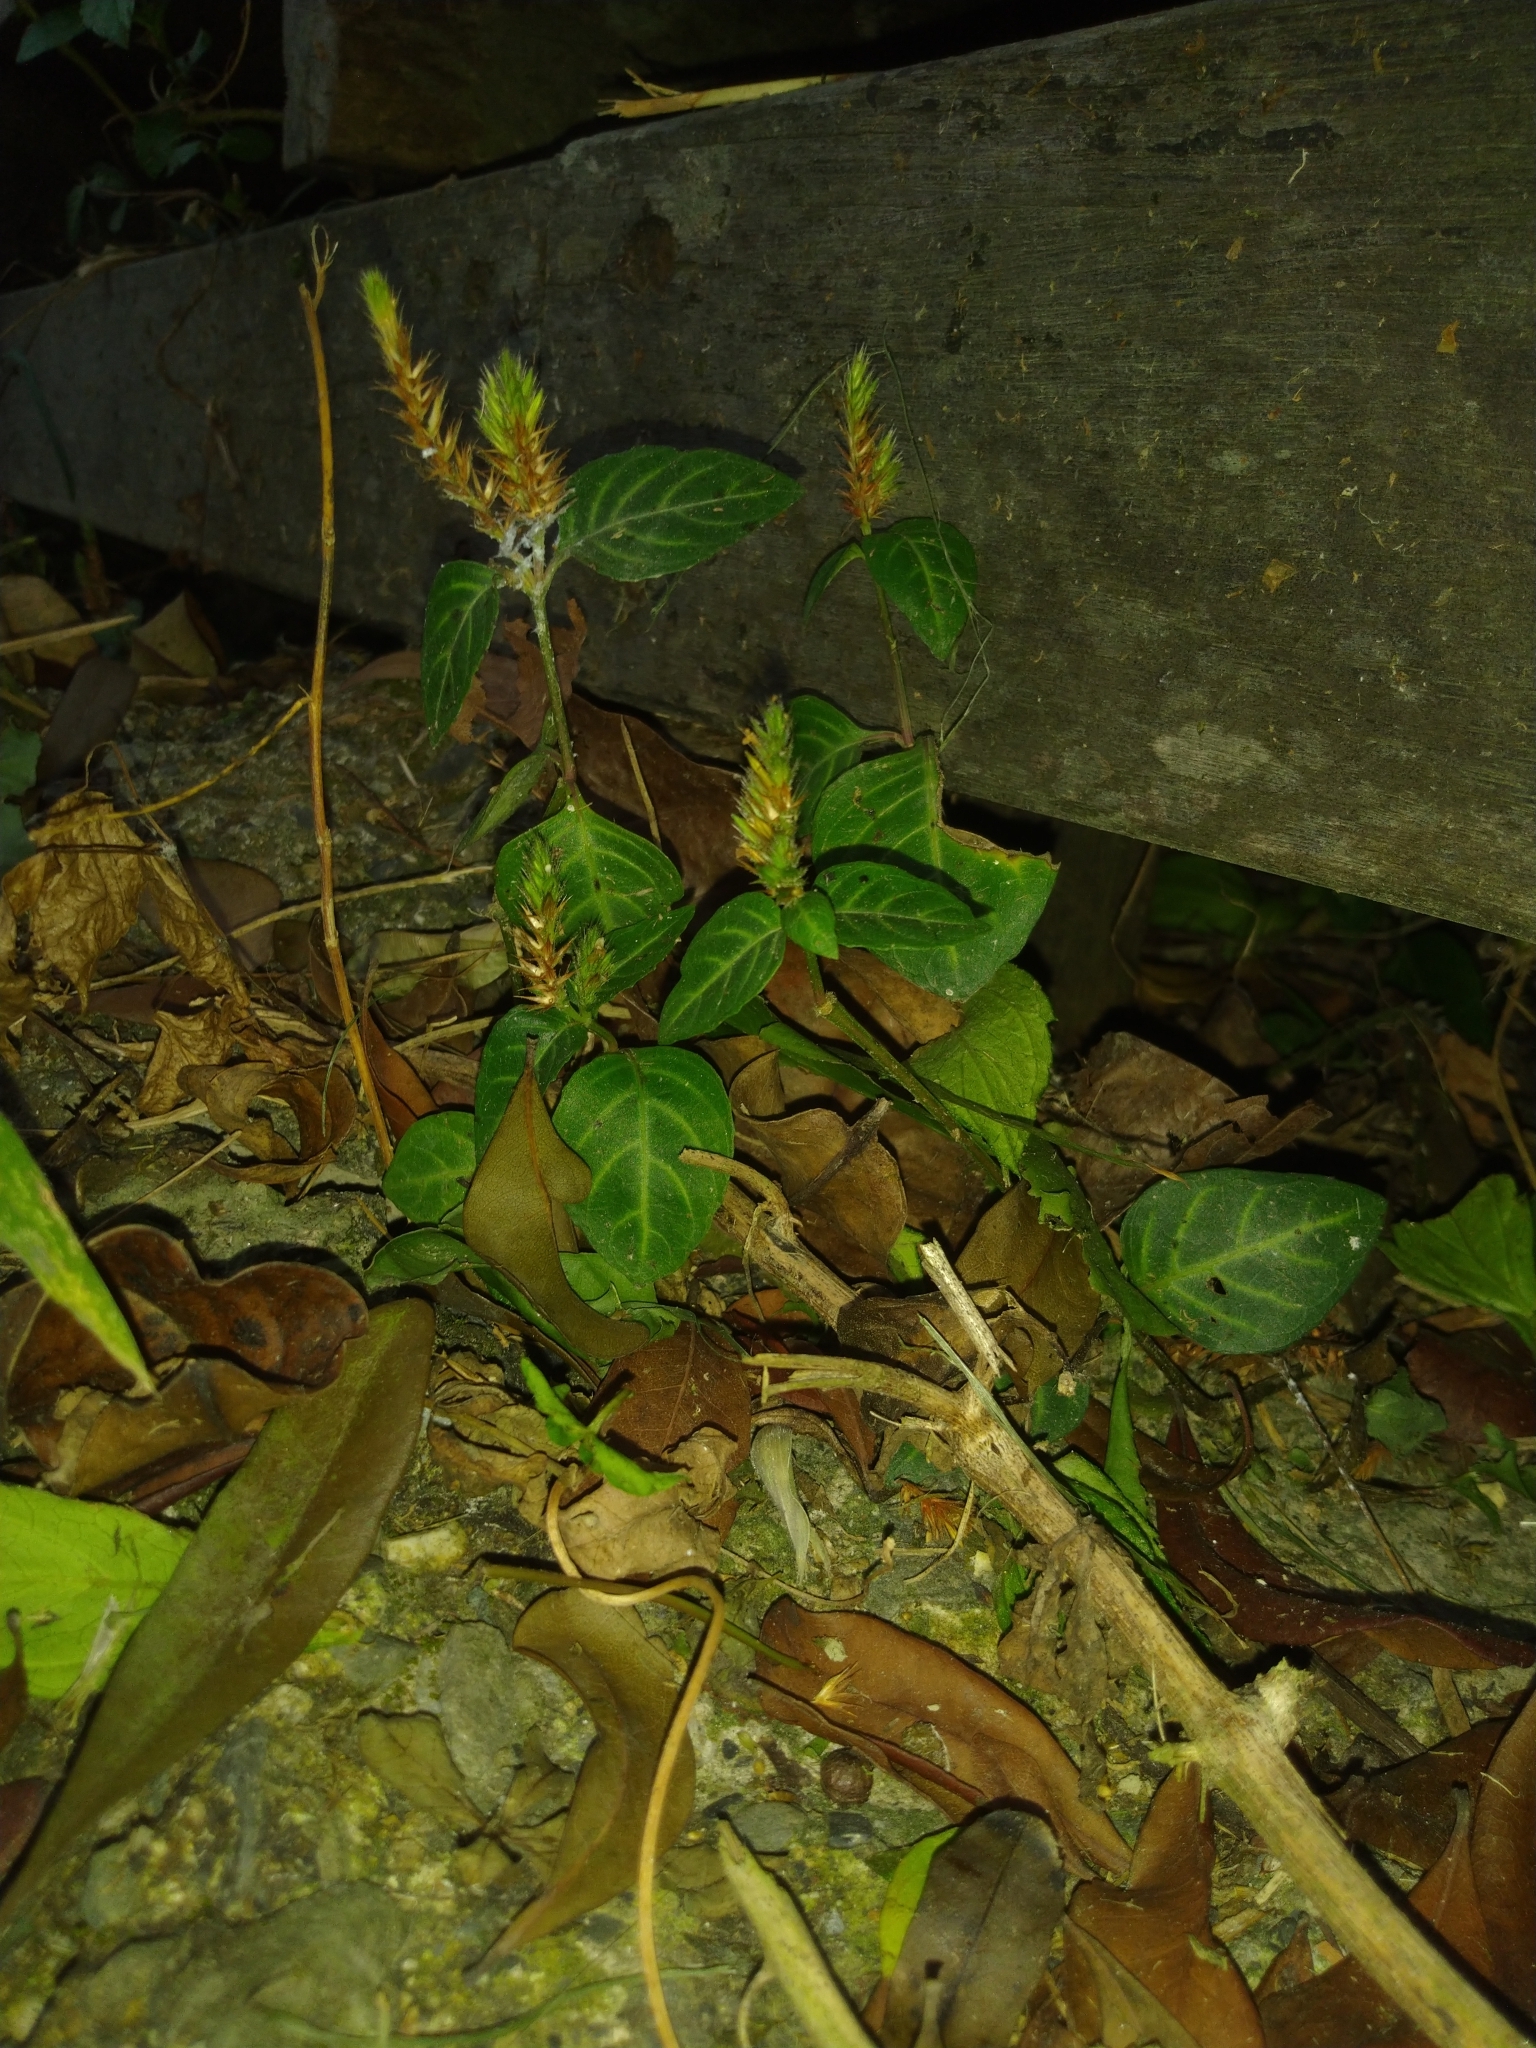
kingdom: Plantae
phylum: Tracheophyta
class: Magnoliopsida
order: Lamiales
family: Acanthaceae
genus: Lepidagathis
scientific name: Lepidagathis inaequalis
